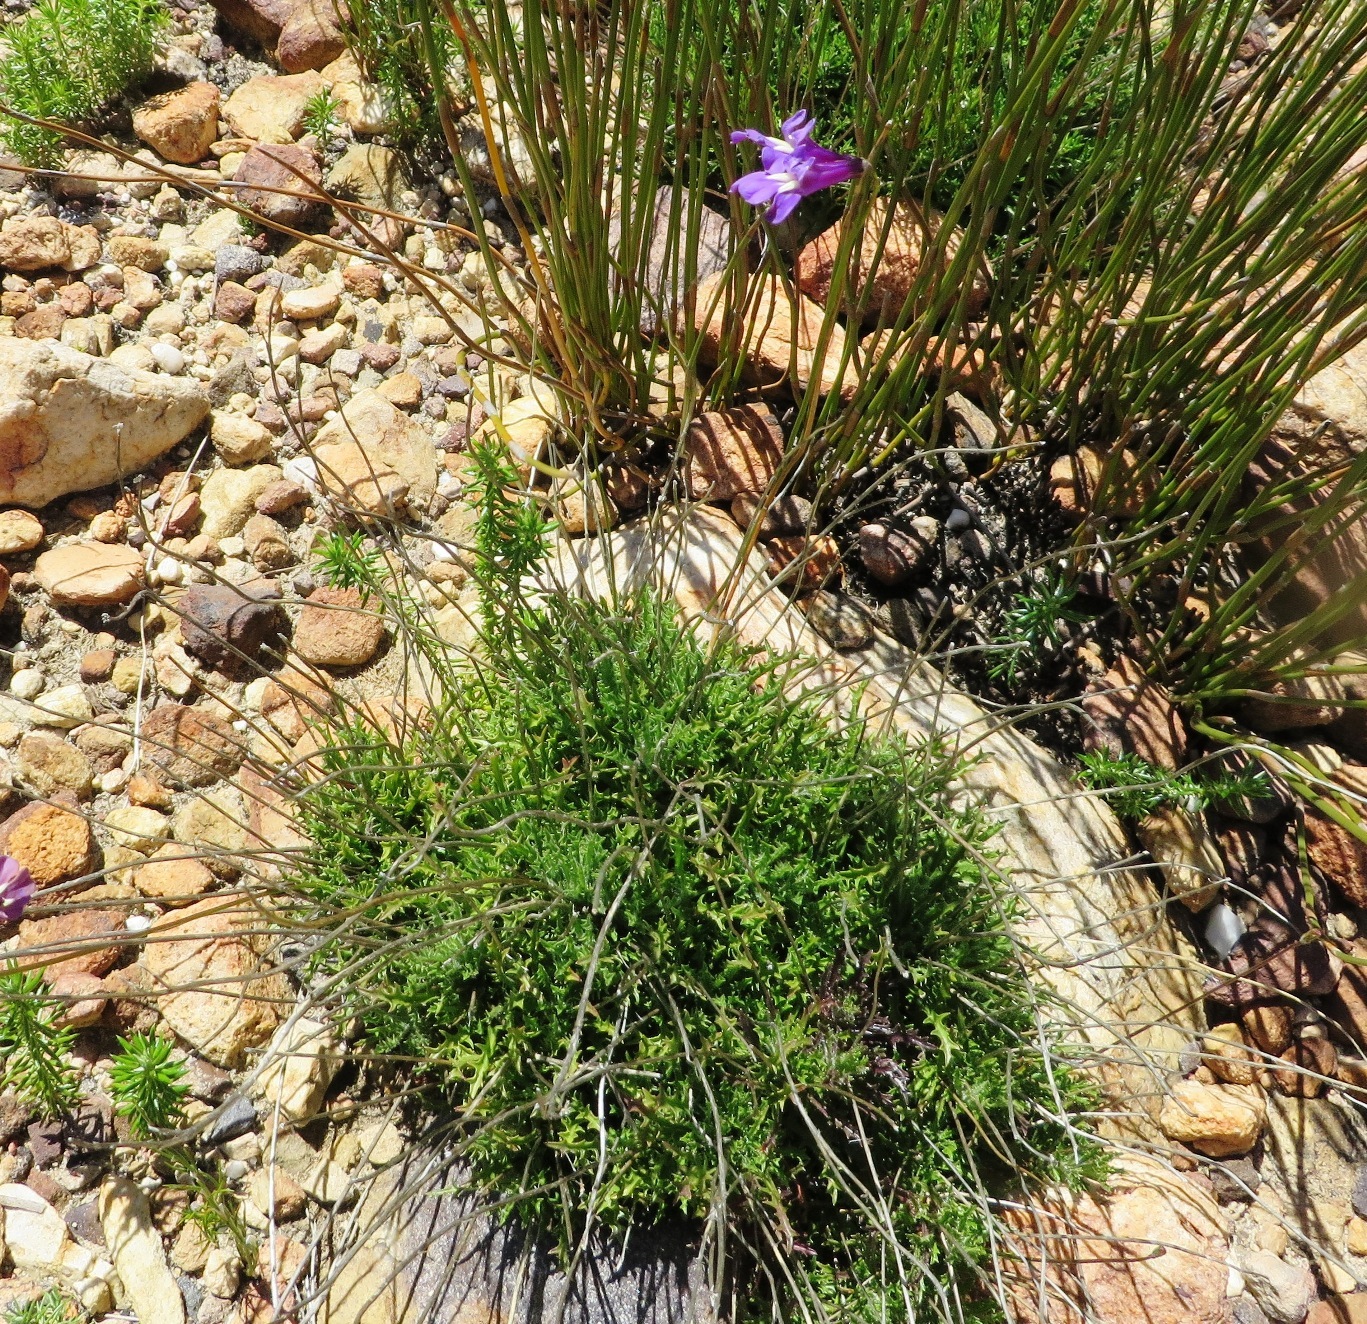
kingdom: Plantae
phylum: Tracheophyta
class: Magnoliopsida
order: Asterales
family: Campanulaceae
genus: Lobelia
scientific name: Lobelia coronopifolia
